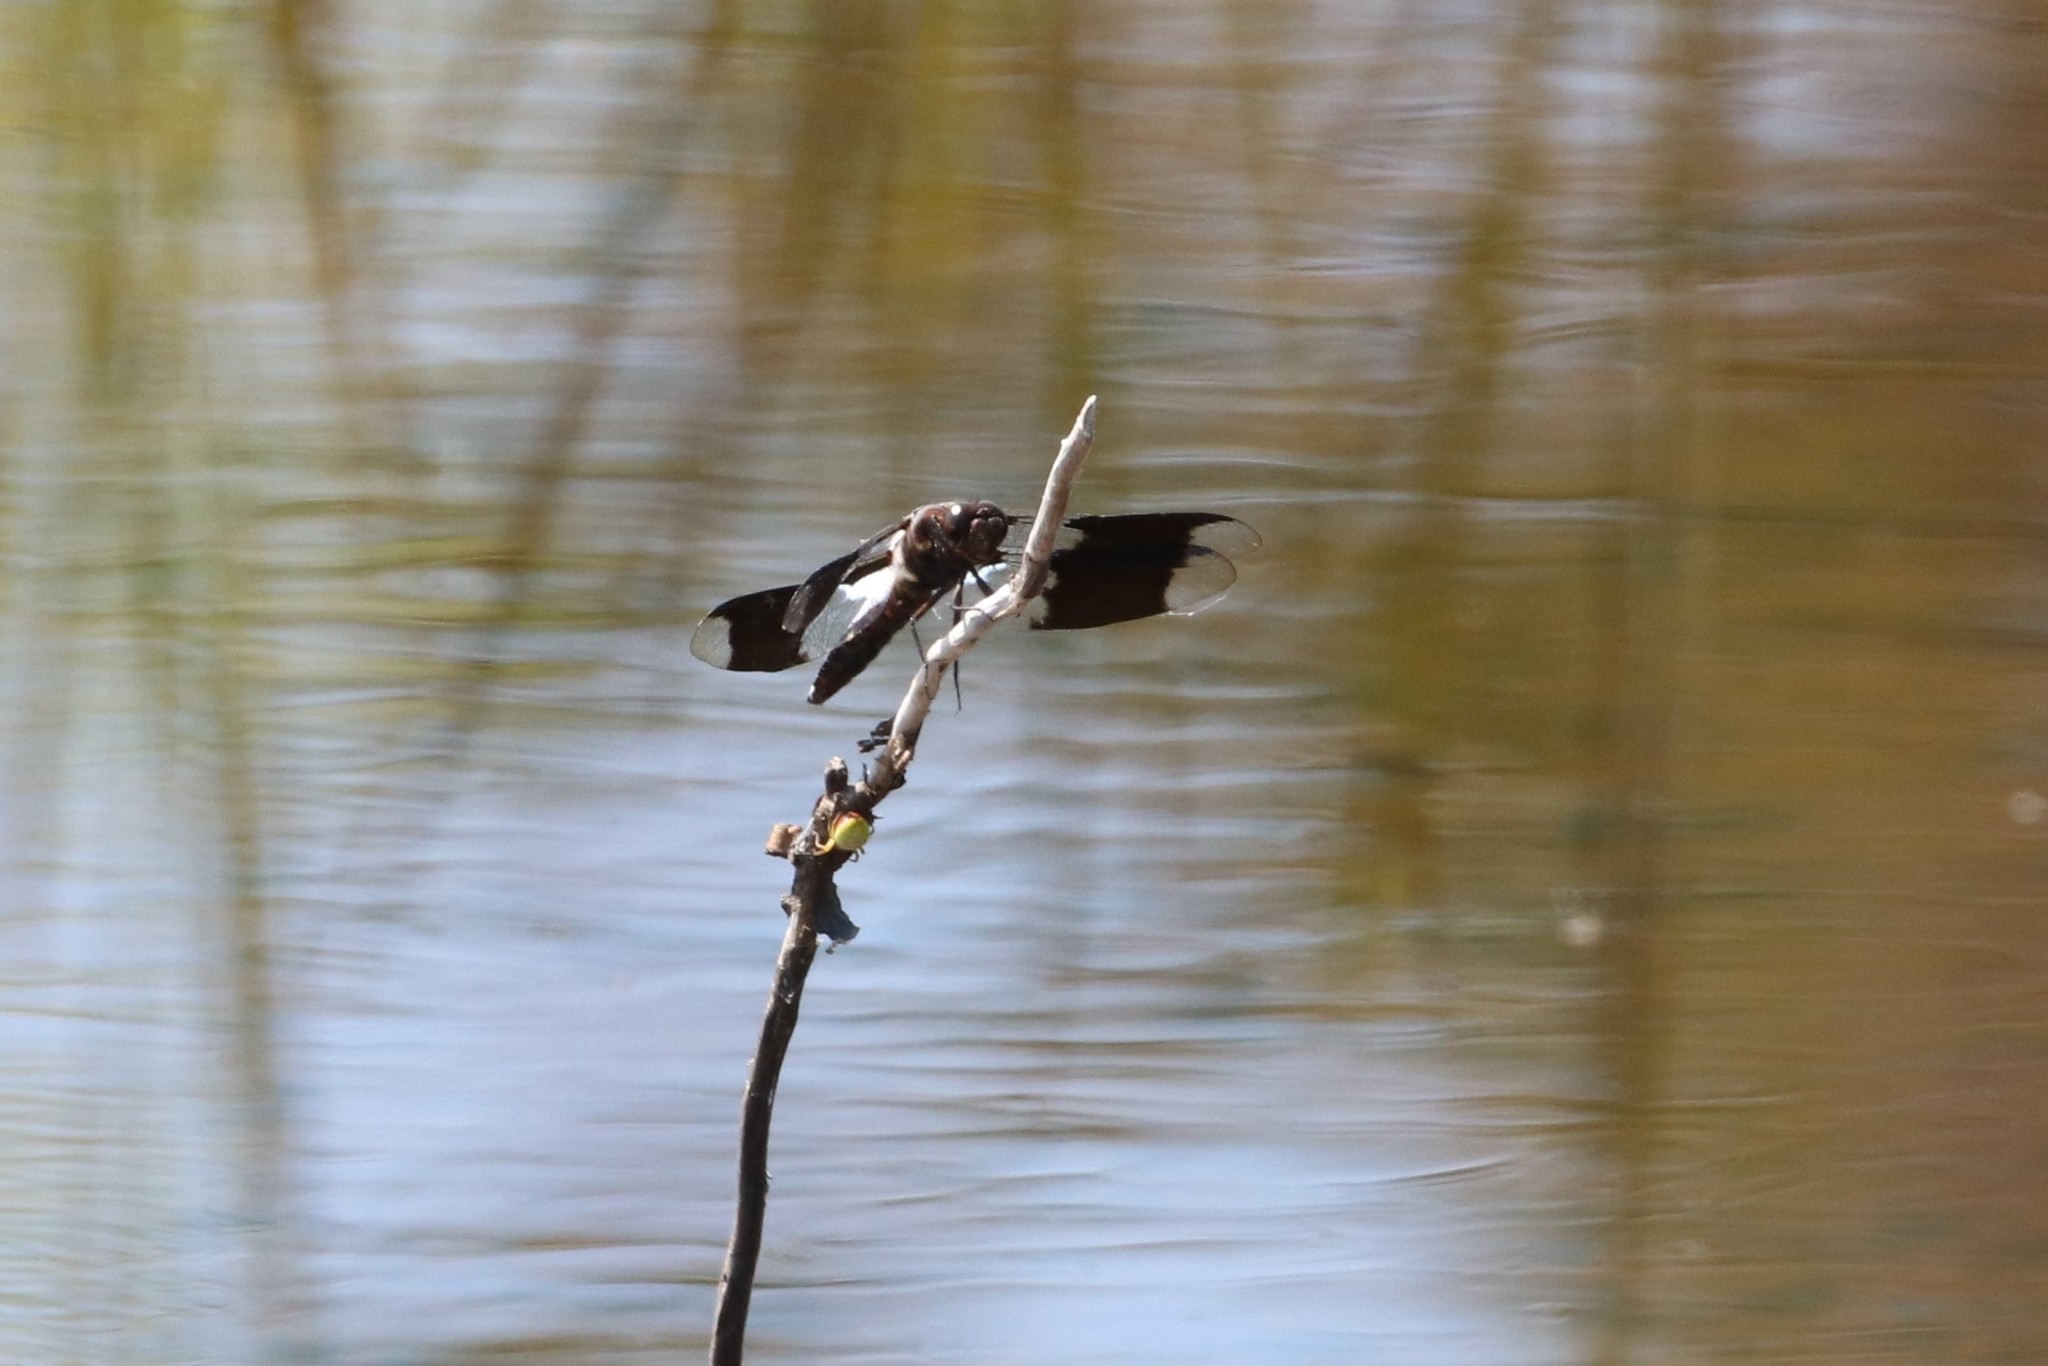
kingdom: Animalia
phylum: Arthropoda
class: Insecta
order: Odonata
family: Libellulidae
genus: Plathemis
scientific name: Plathemis lydia
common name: Common whitetail
